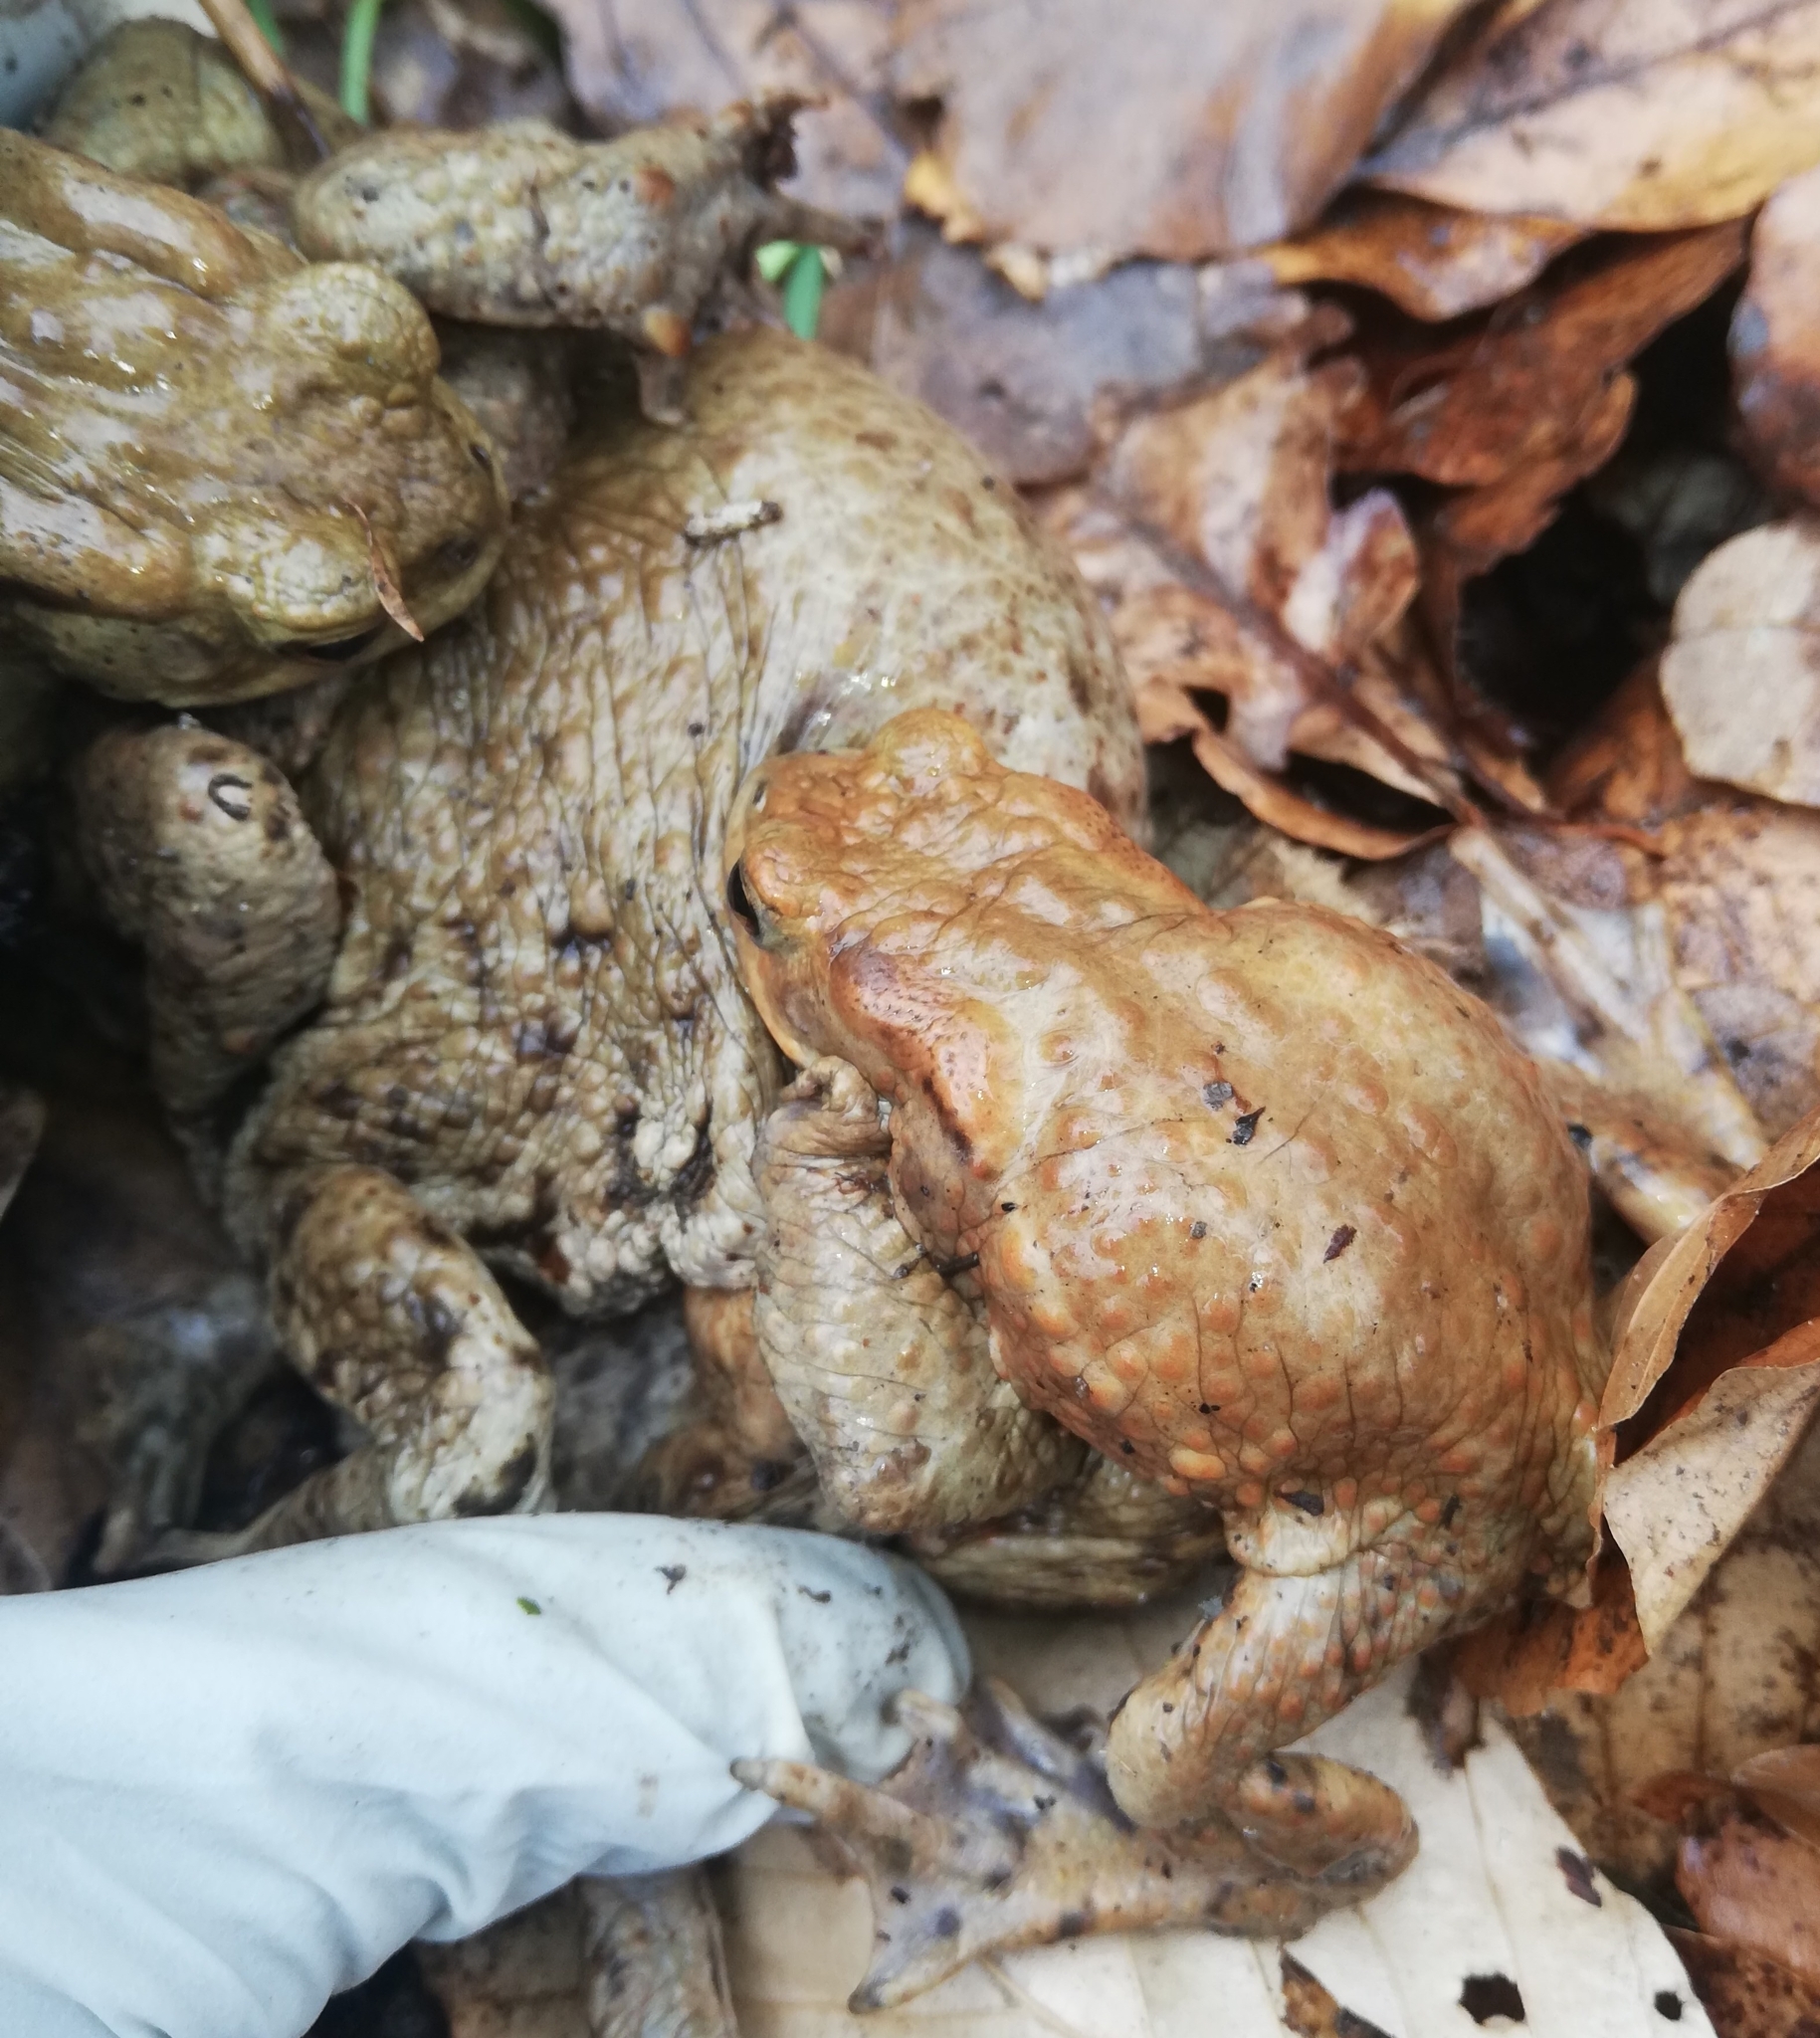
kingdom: Animalia
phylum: Chordata
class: Amphibia
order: Anura
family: Bufonidae
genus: Bufo
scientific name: Bufo bufo
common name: Common toad
